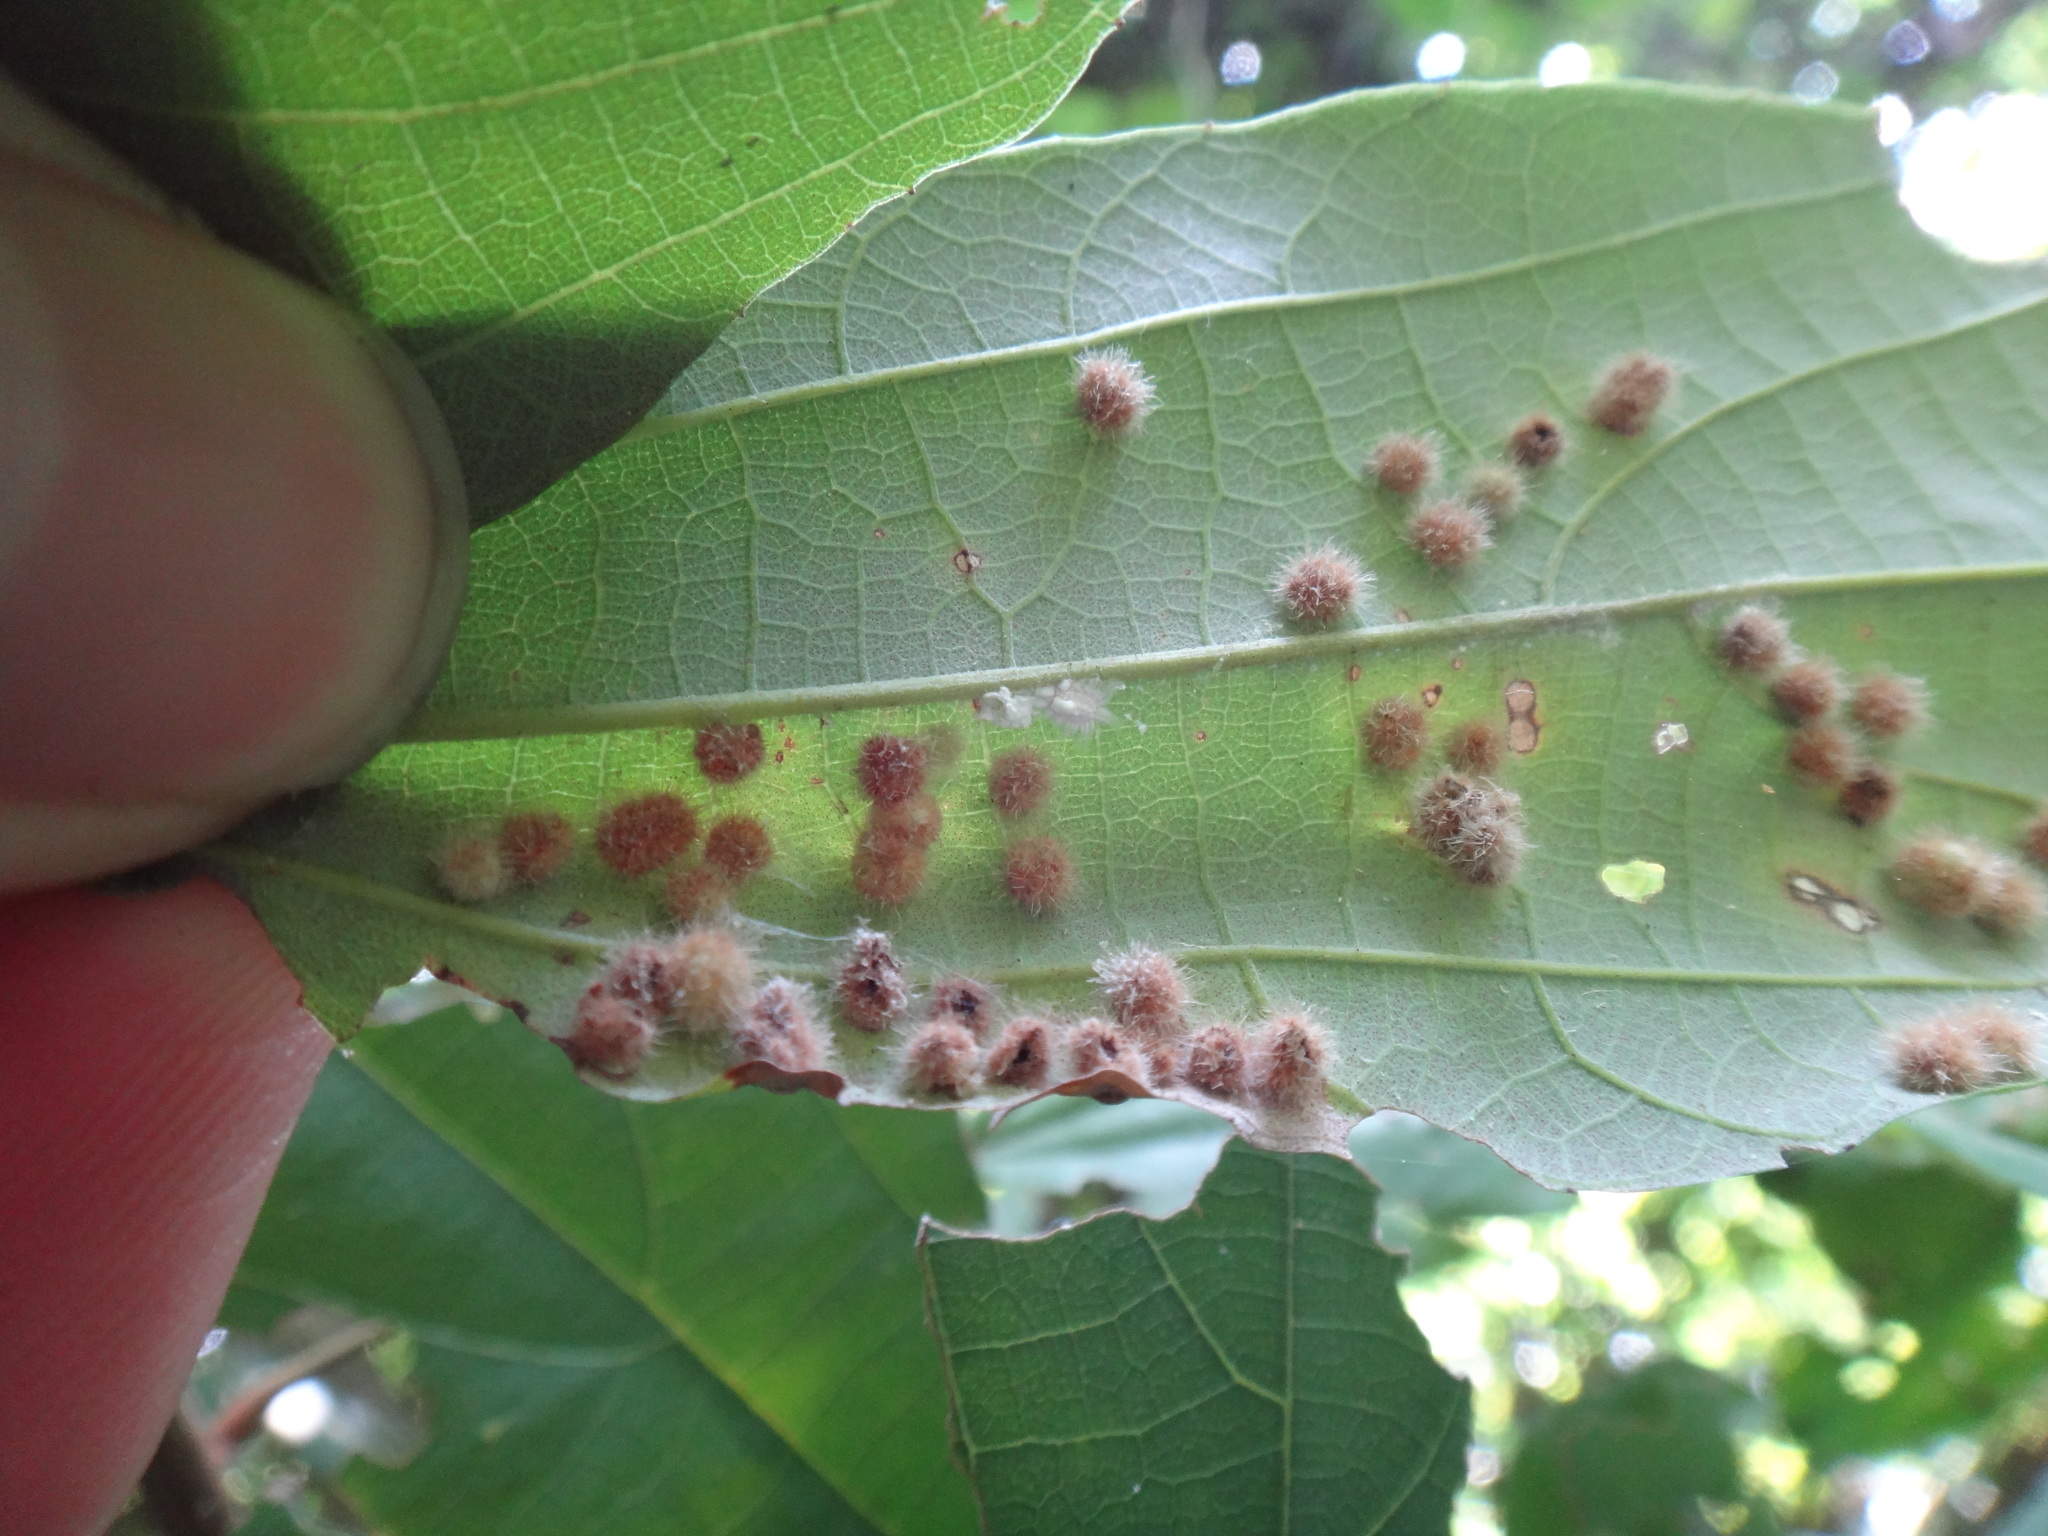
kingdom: Plantae
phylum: Tracheophyta
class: Magnoliopsida
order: Malpighiales
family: Euphorbiaceae
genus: Mallotus
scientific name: Mallotus philippensis
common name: Kamala tree
